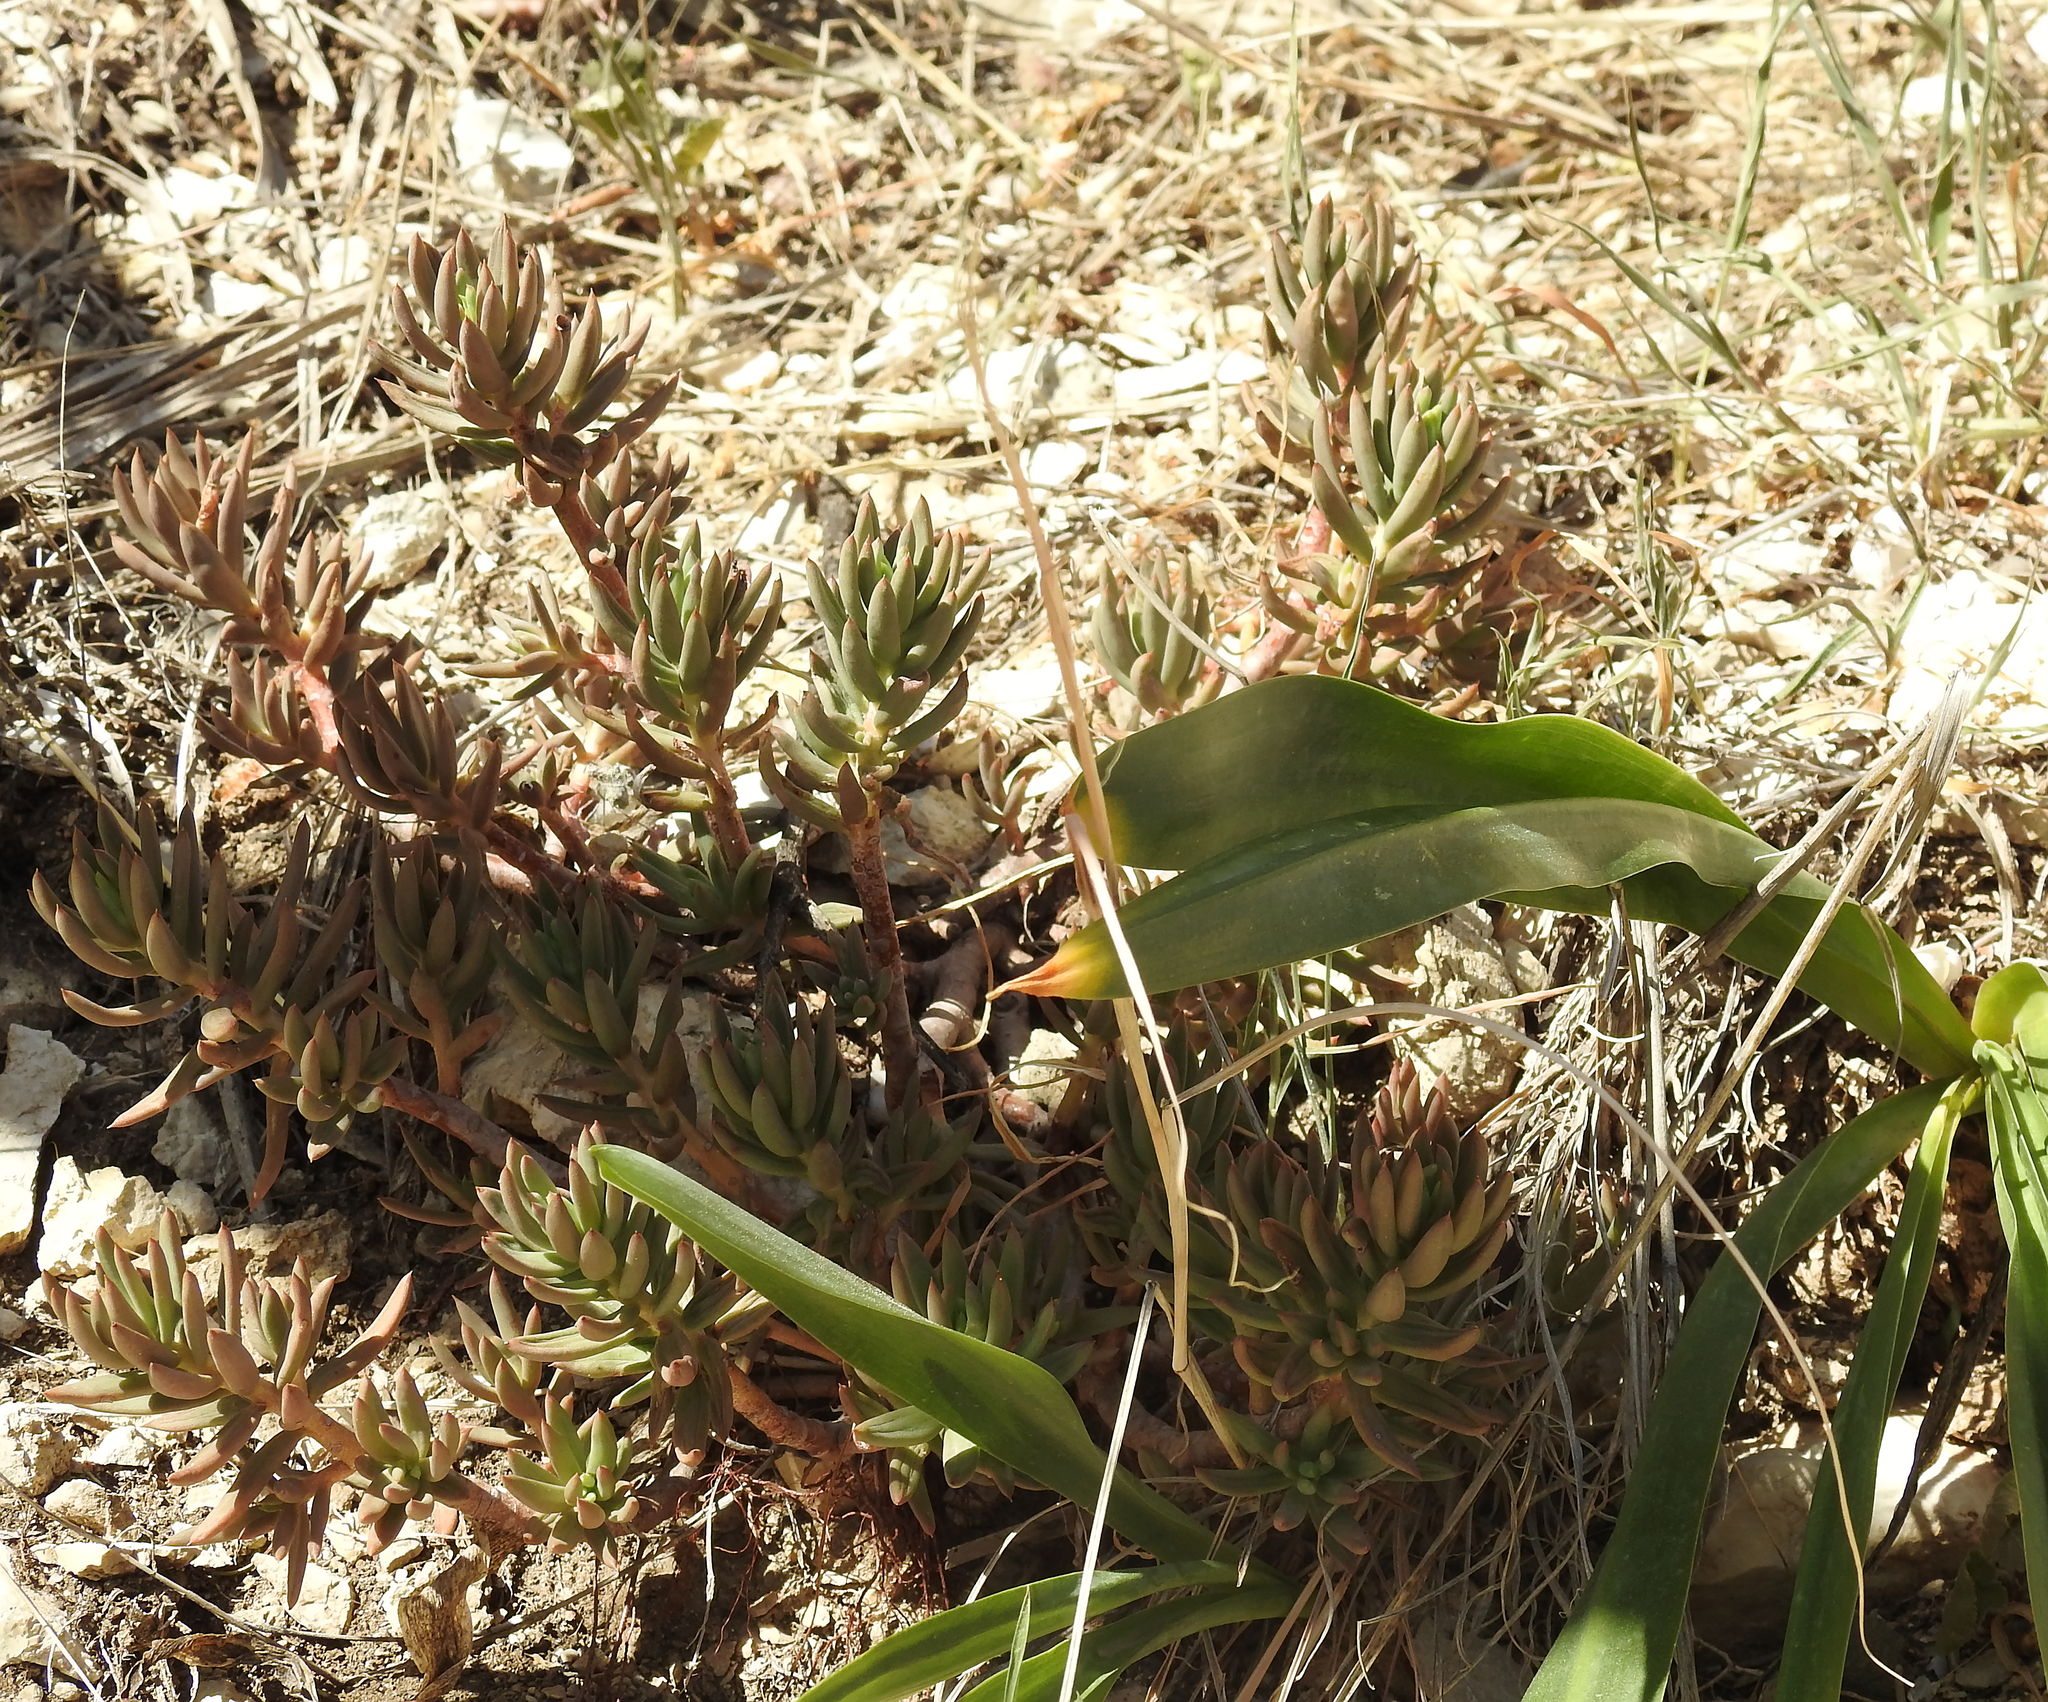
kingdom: Plantae
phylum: Tracheophyta
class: Magnoliopsida
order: Saxifragales
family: Crassulaceae
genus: Petrosedum
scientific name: Petrosedum sediforme
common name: Pale stonecrop
